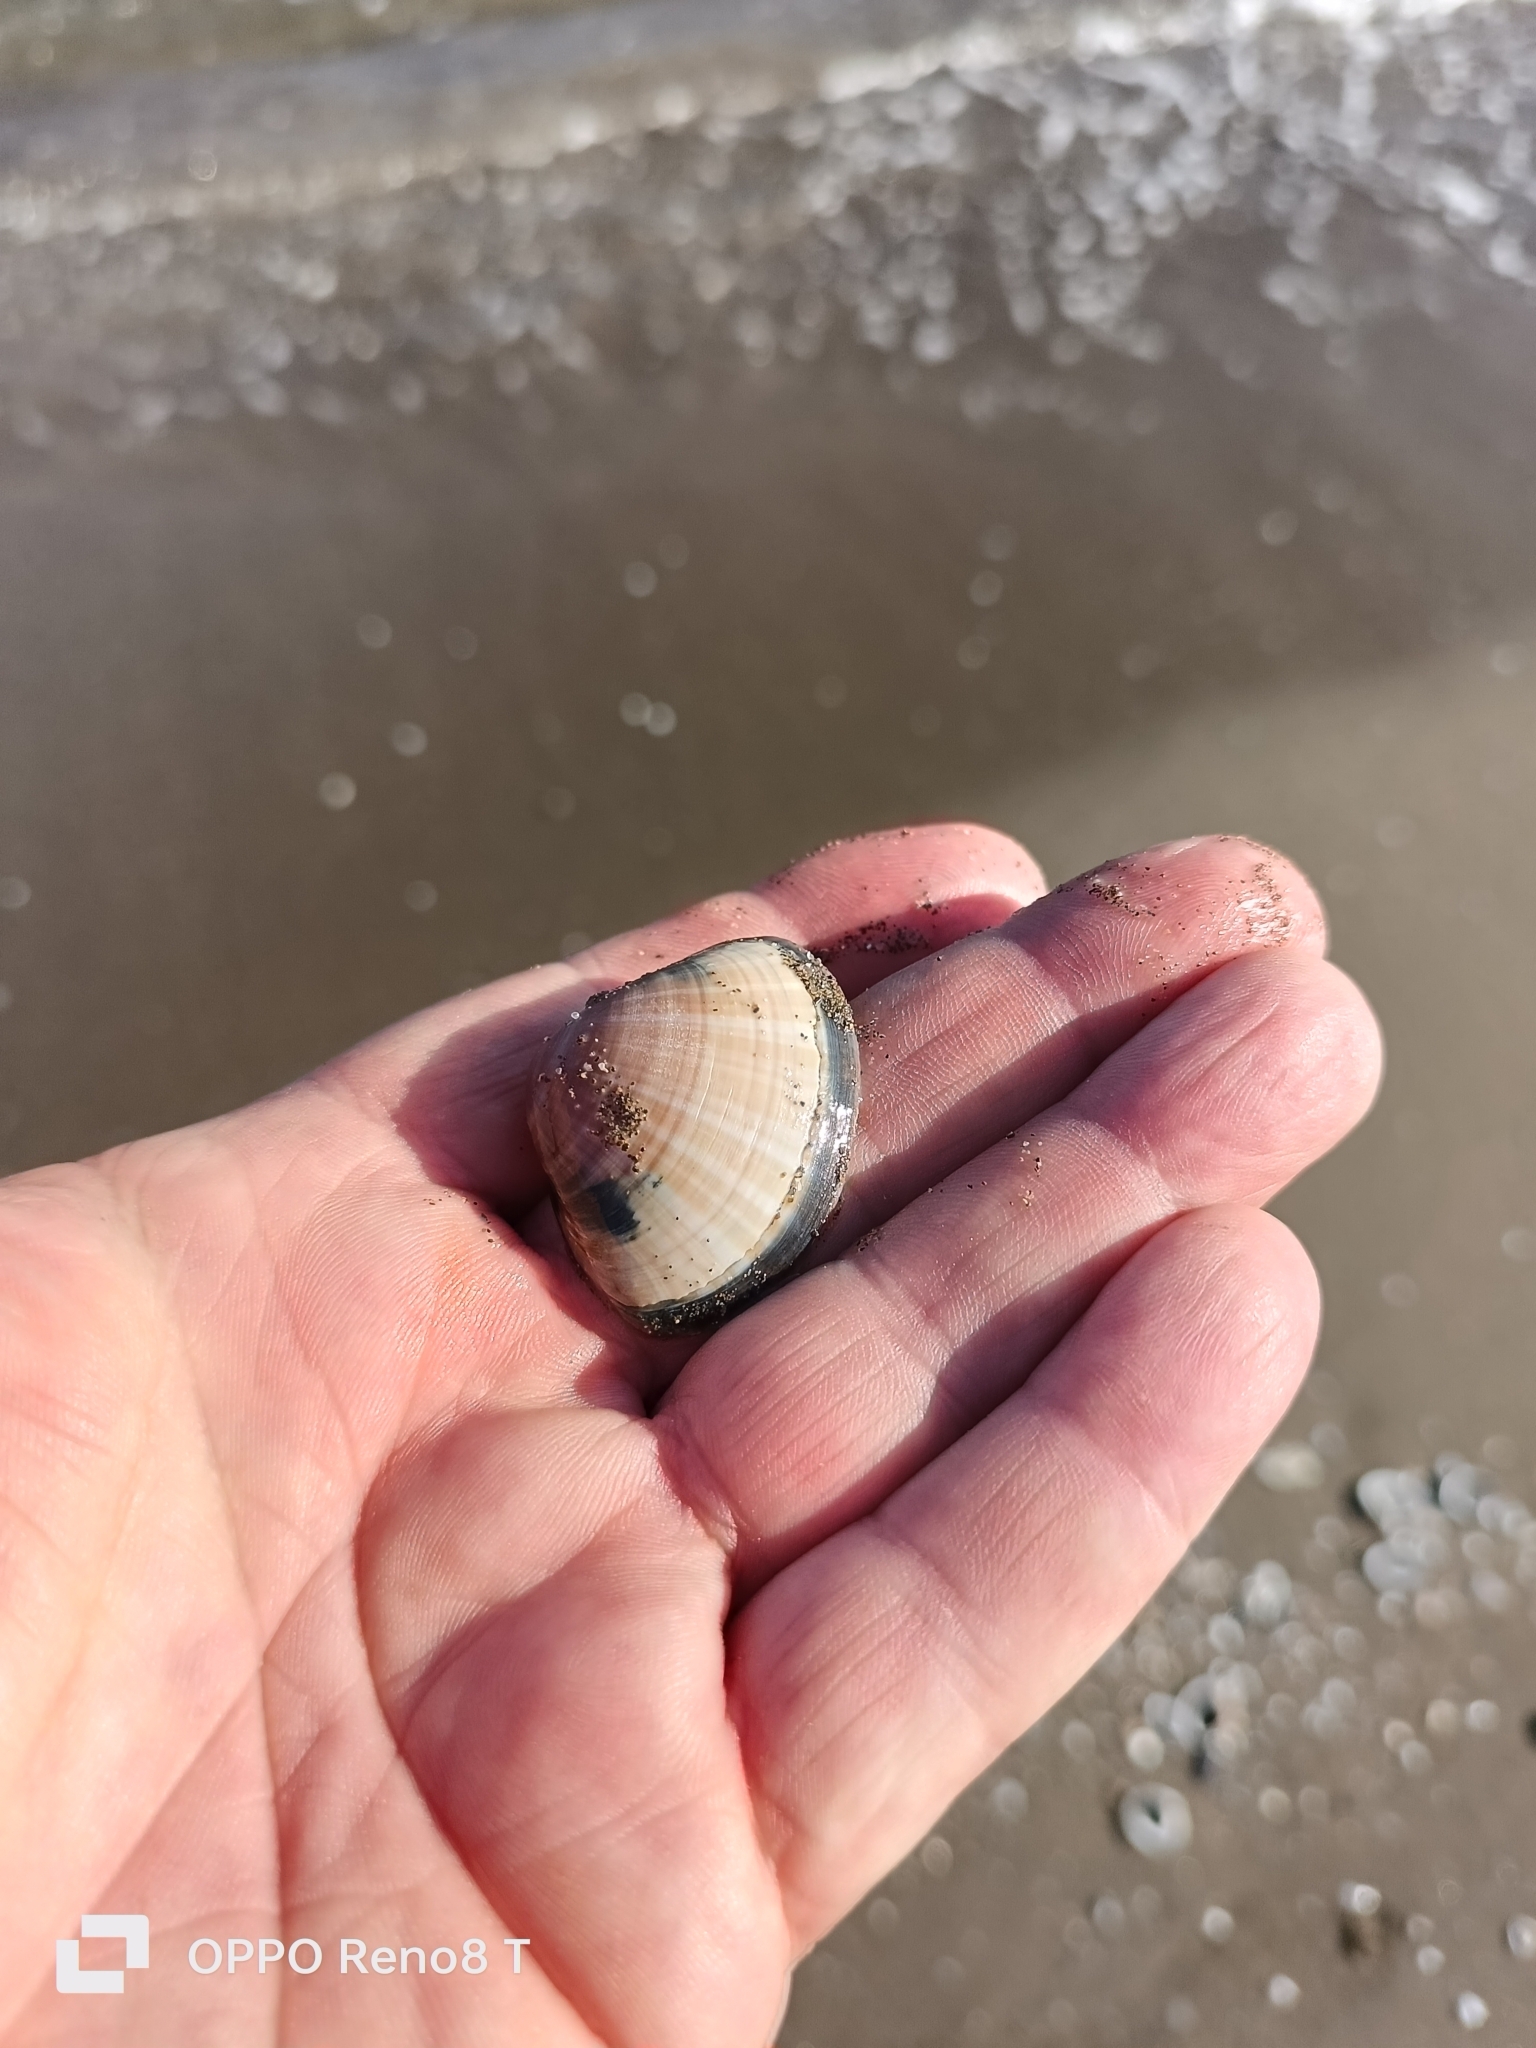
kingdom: Animalia
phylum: Mollusca
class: Bivalvia
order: Venerida
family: Mactridae
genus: Mactra
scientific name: Mactra stultorum
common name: Rayed trough shell
